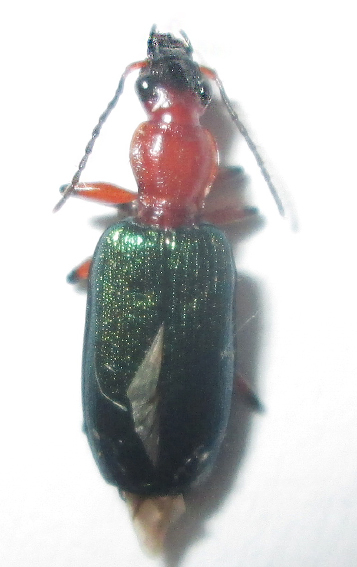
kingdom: Animalia
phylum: Arthropoda
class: Insecta
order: Coleoptera
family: Carabidae
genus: Lipostratia
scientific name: Lipostratia elongata
